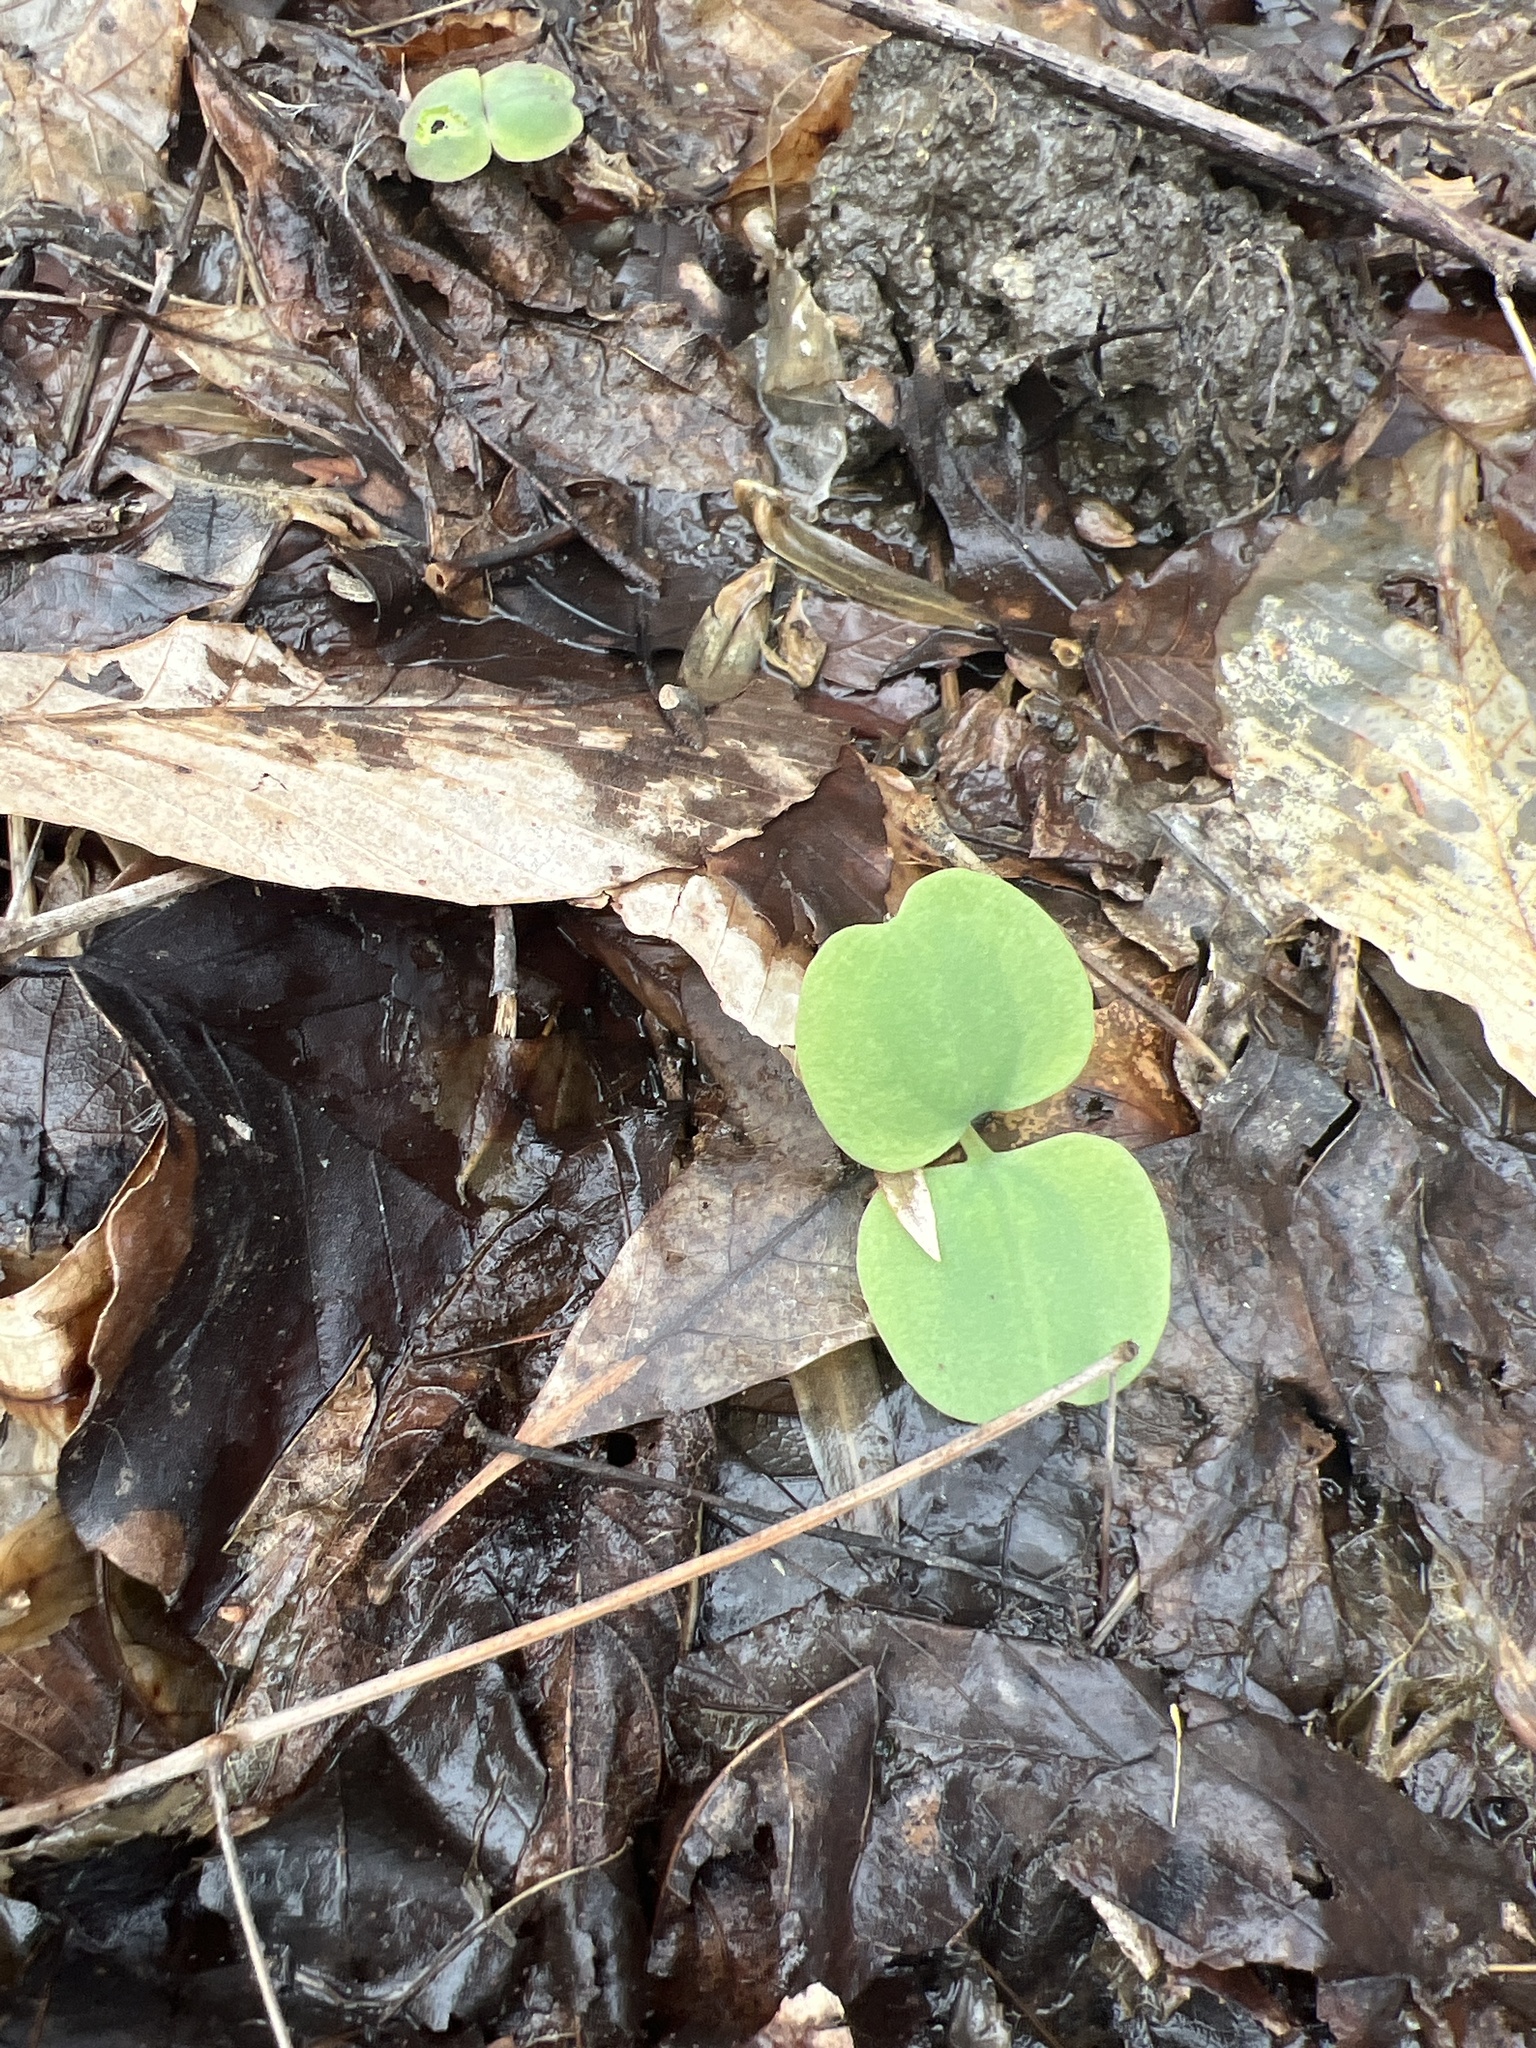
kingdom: Plantae
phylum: Tracheophyta
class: Magnoliopsida
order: Ericales
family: Balsaminaceae
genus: Impatiens
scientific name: Impatiens
